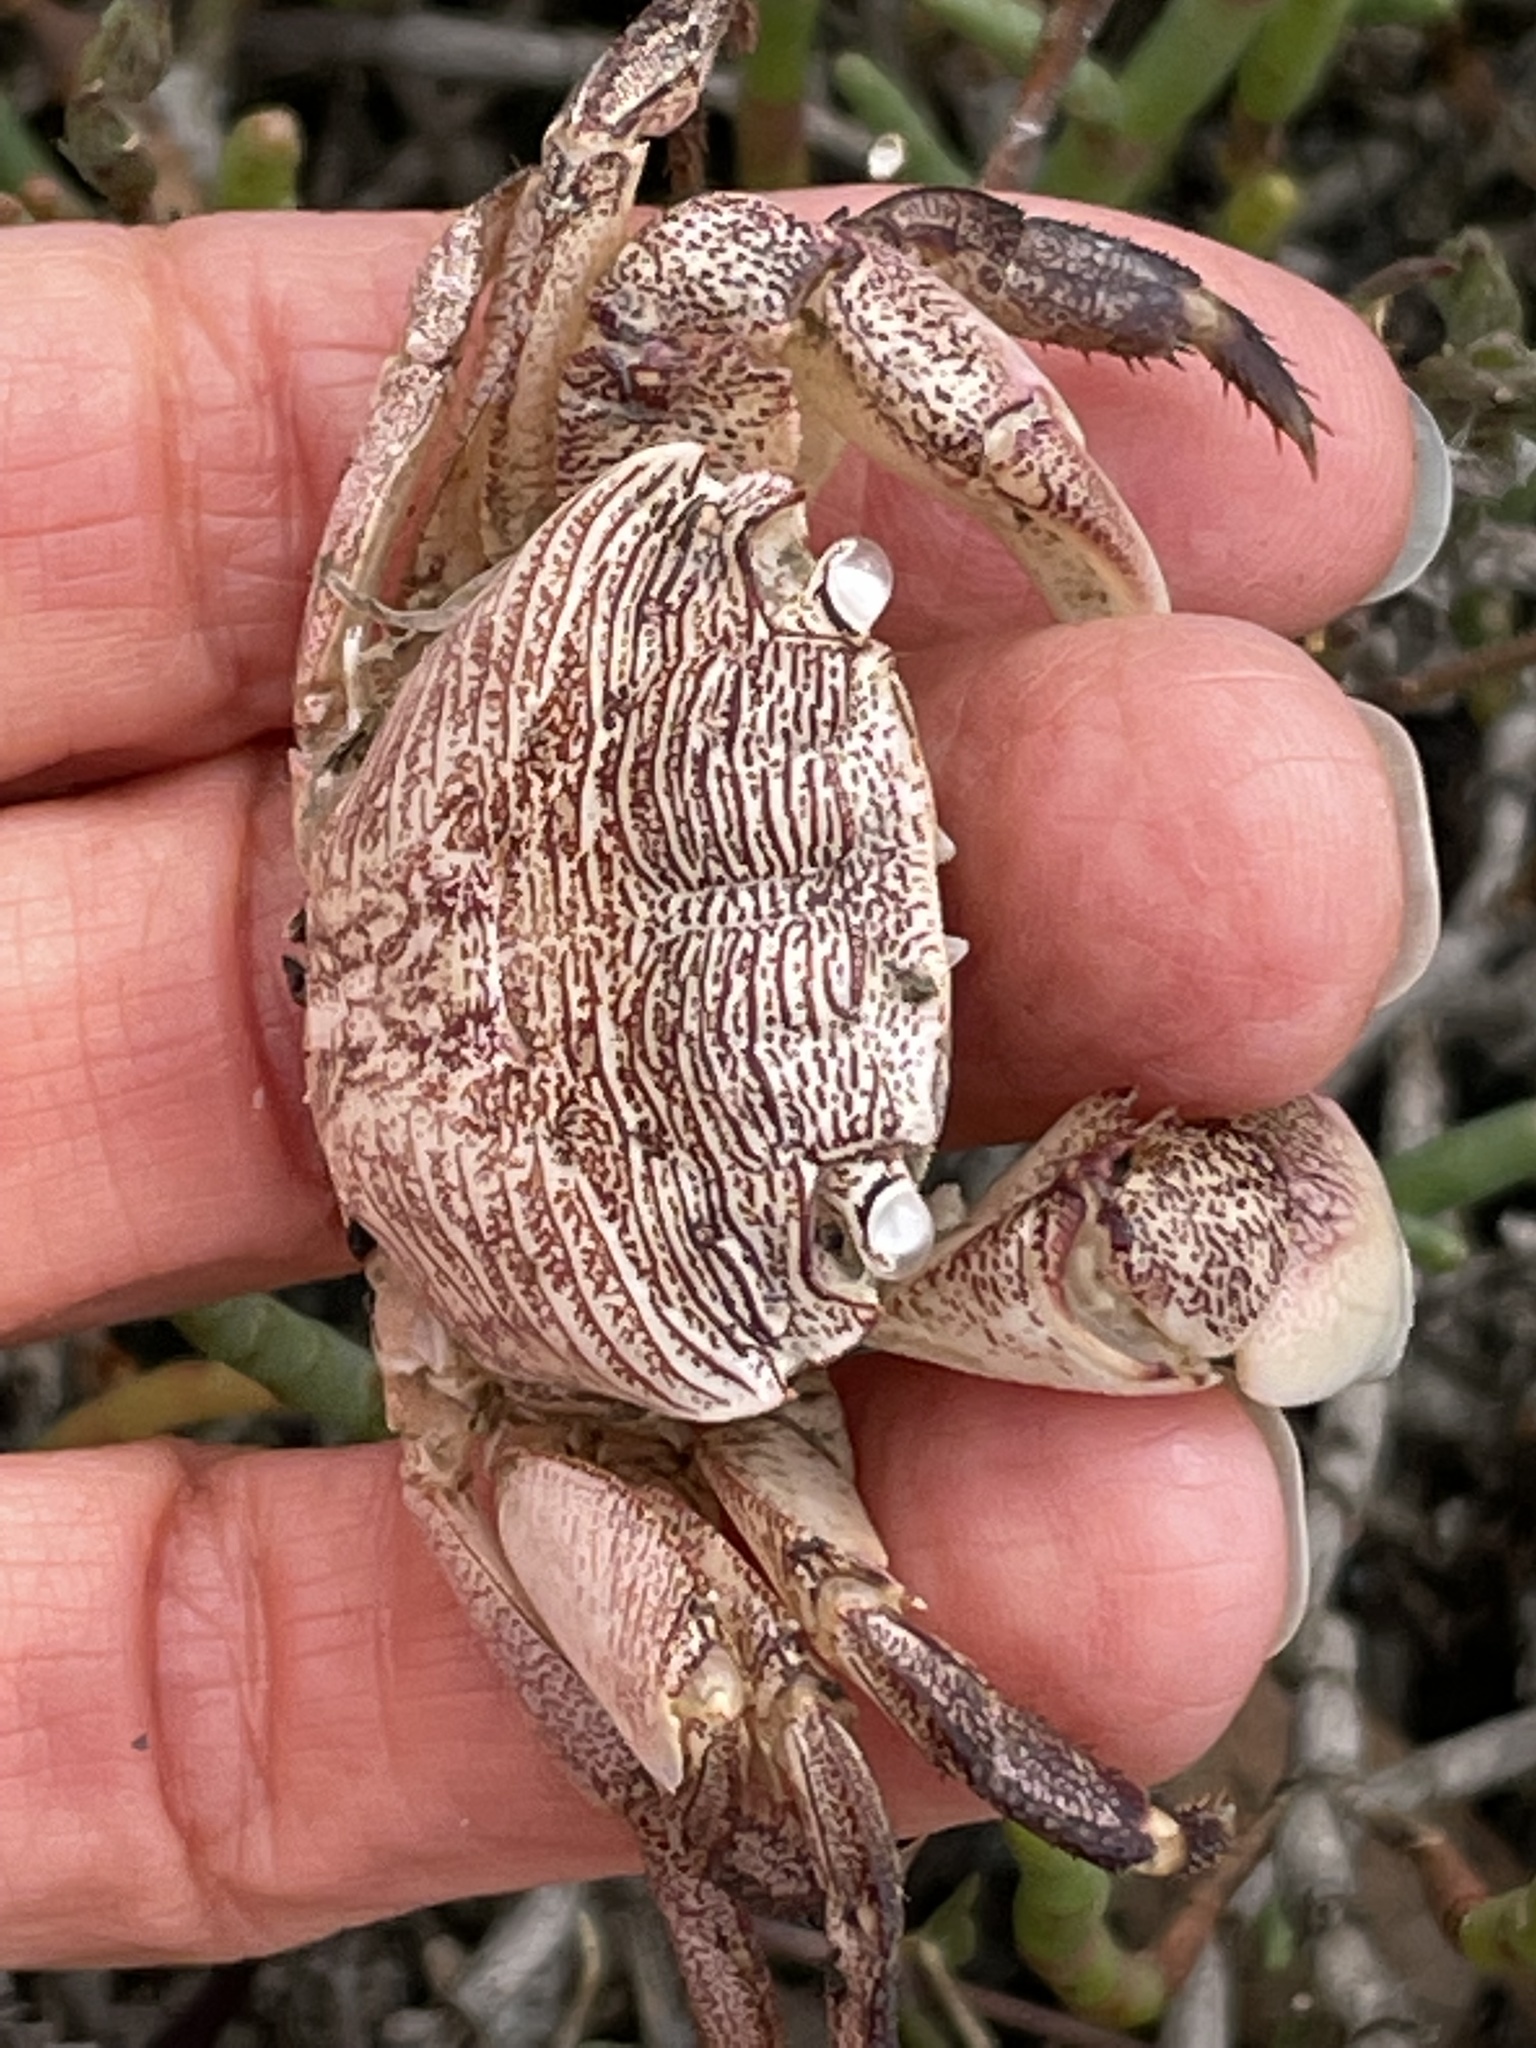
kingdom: Animalia
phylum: Arthropoda
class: Malacostraca
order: Decapoda
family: Grapsidae
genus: Pachygrapsus
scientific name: Pachygrapsus crassipes
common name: Striped shore crab
